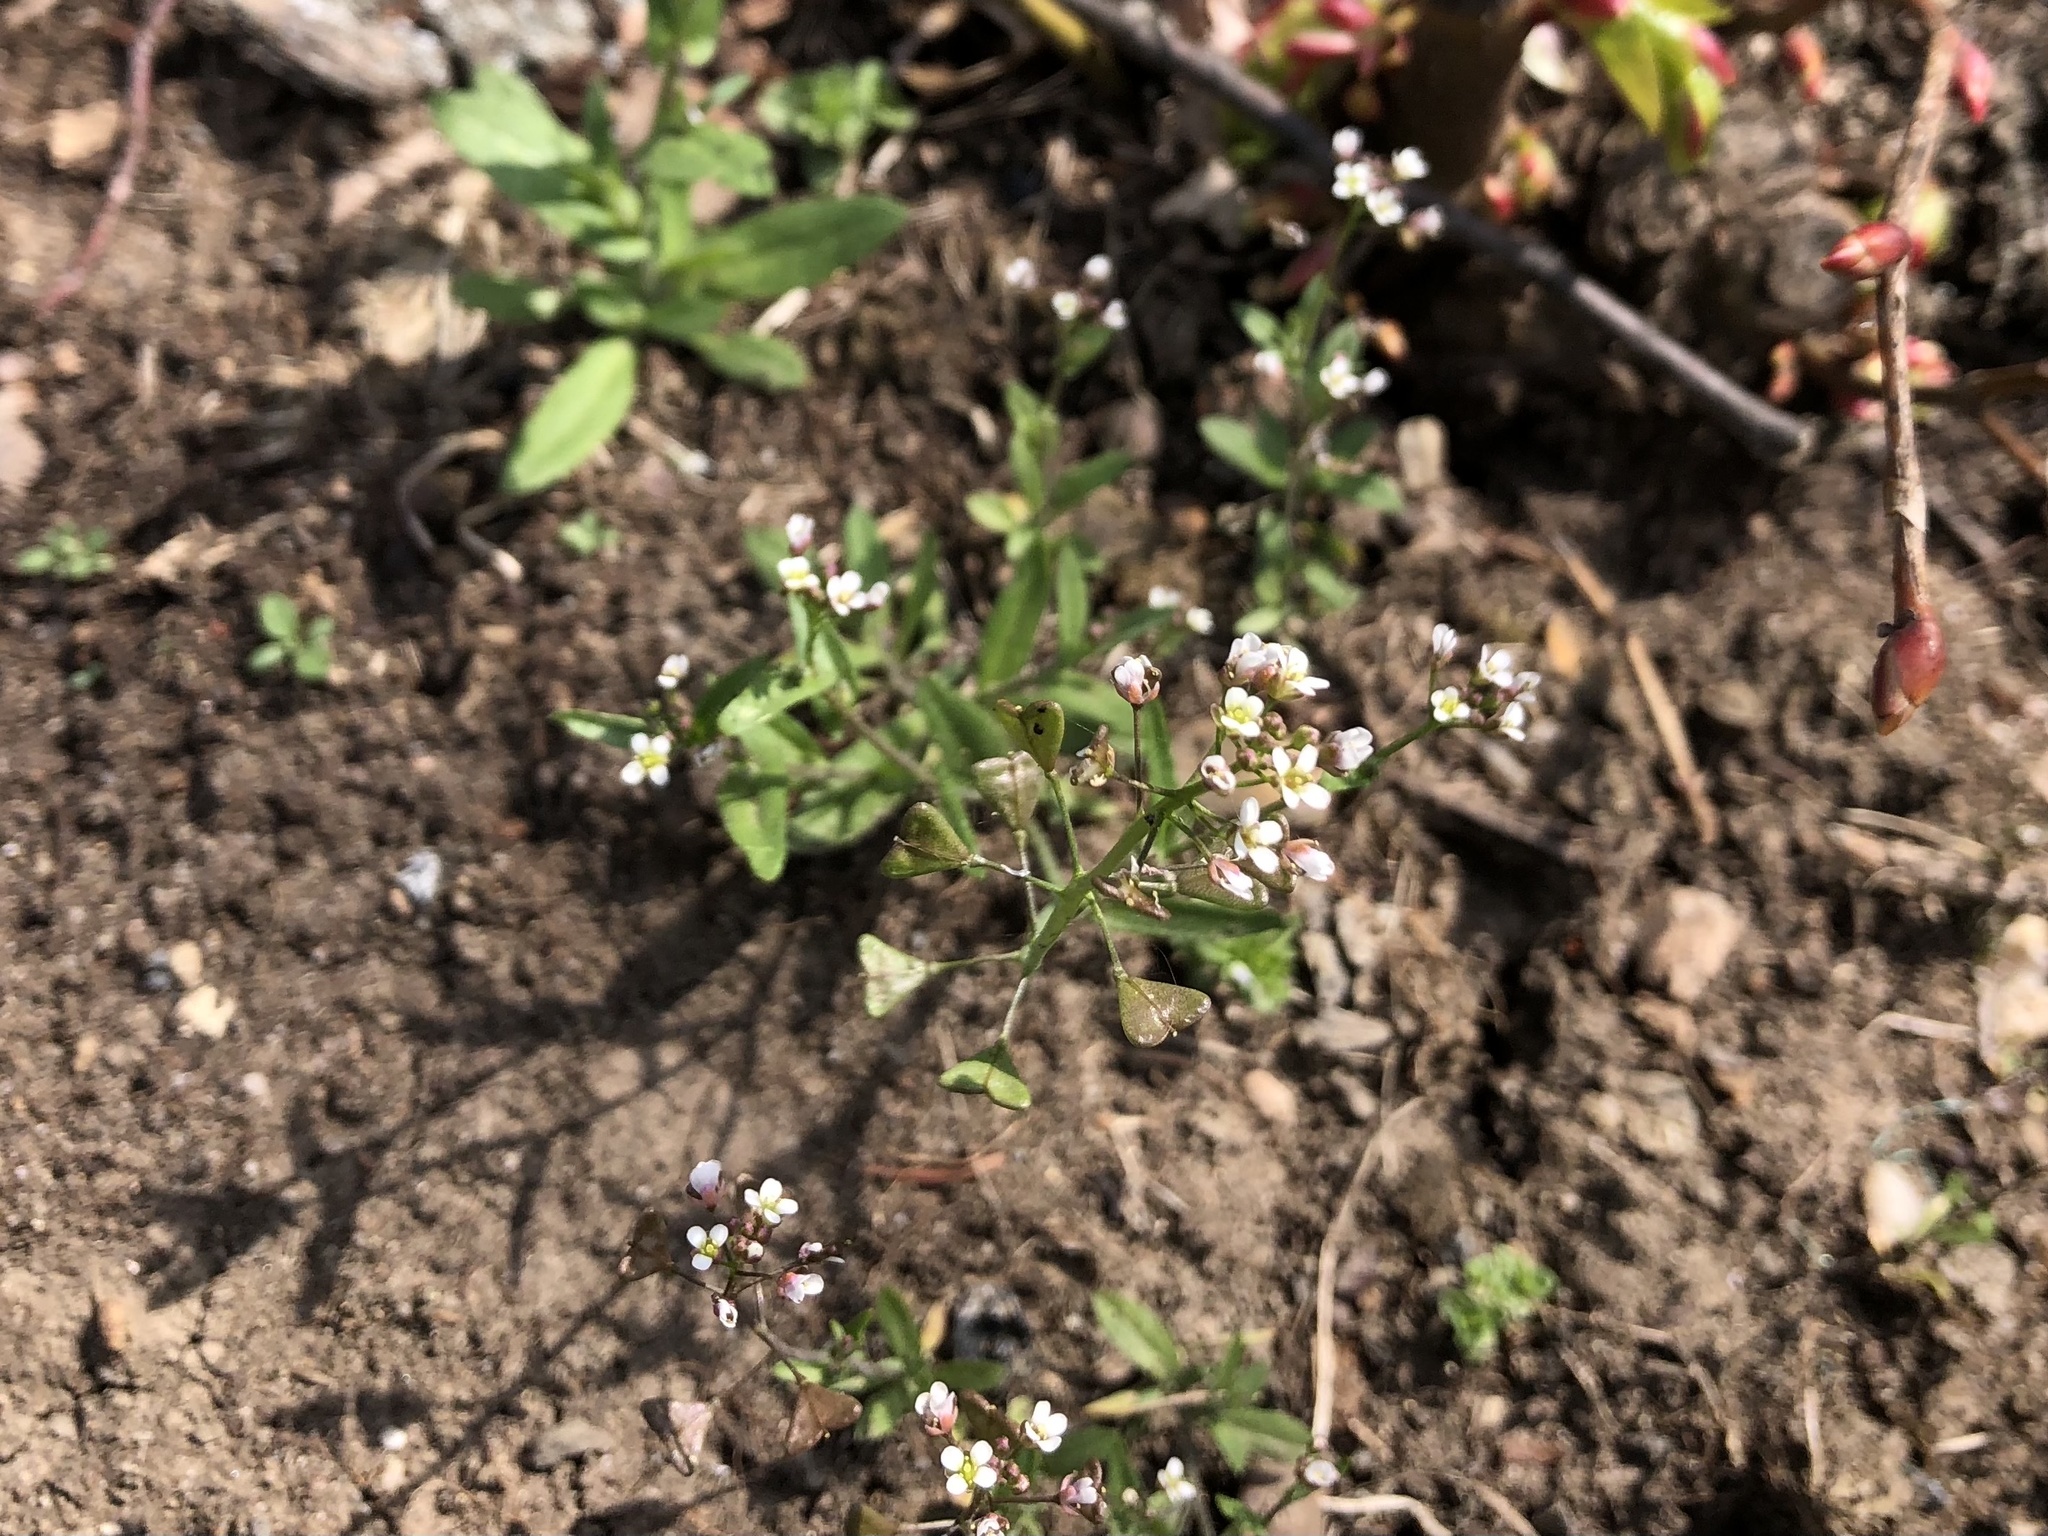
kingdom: Plantae
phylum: Tracheophyta
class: Magnoliopsida
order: Brassicales
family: Brassicaceae
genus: Capsella
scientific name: Capsella bursa-pastoris
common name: Shepherd's purse
